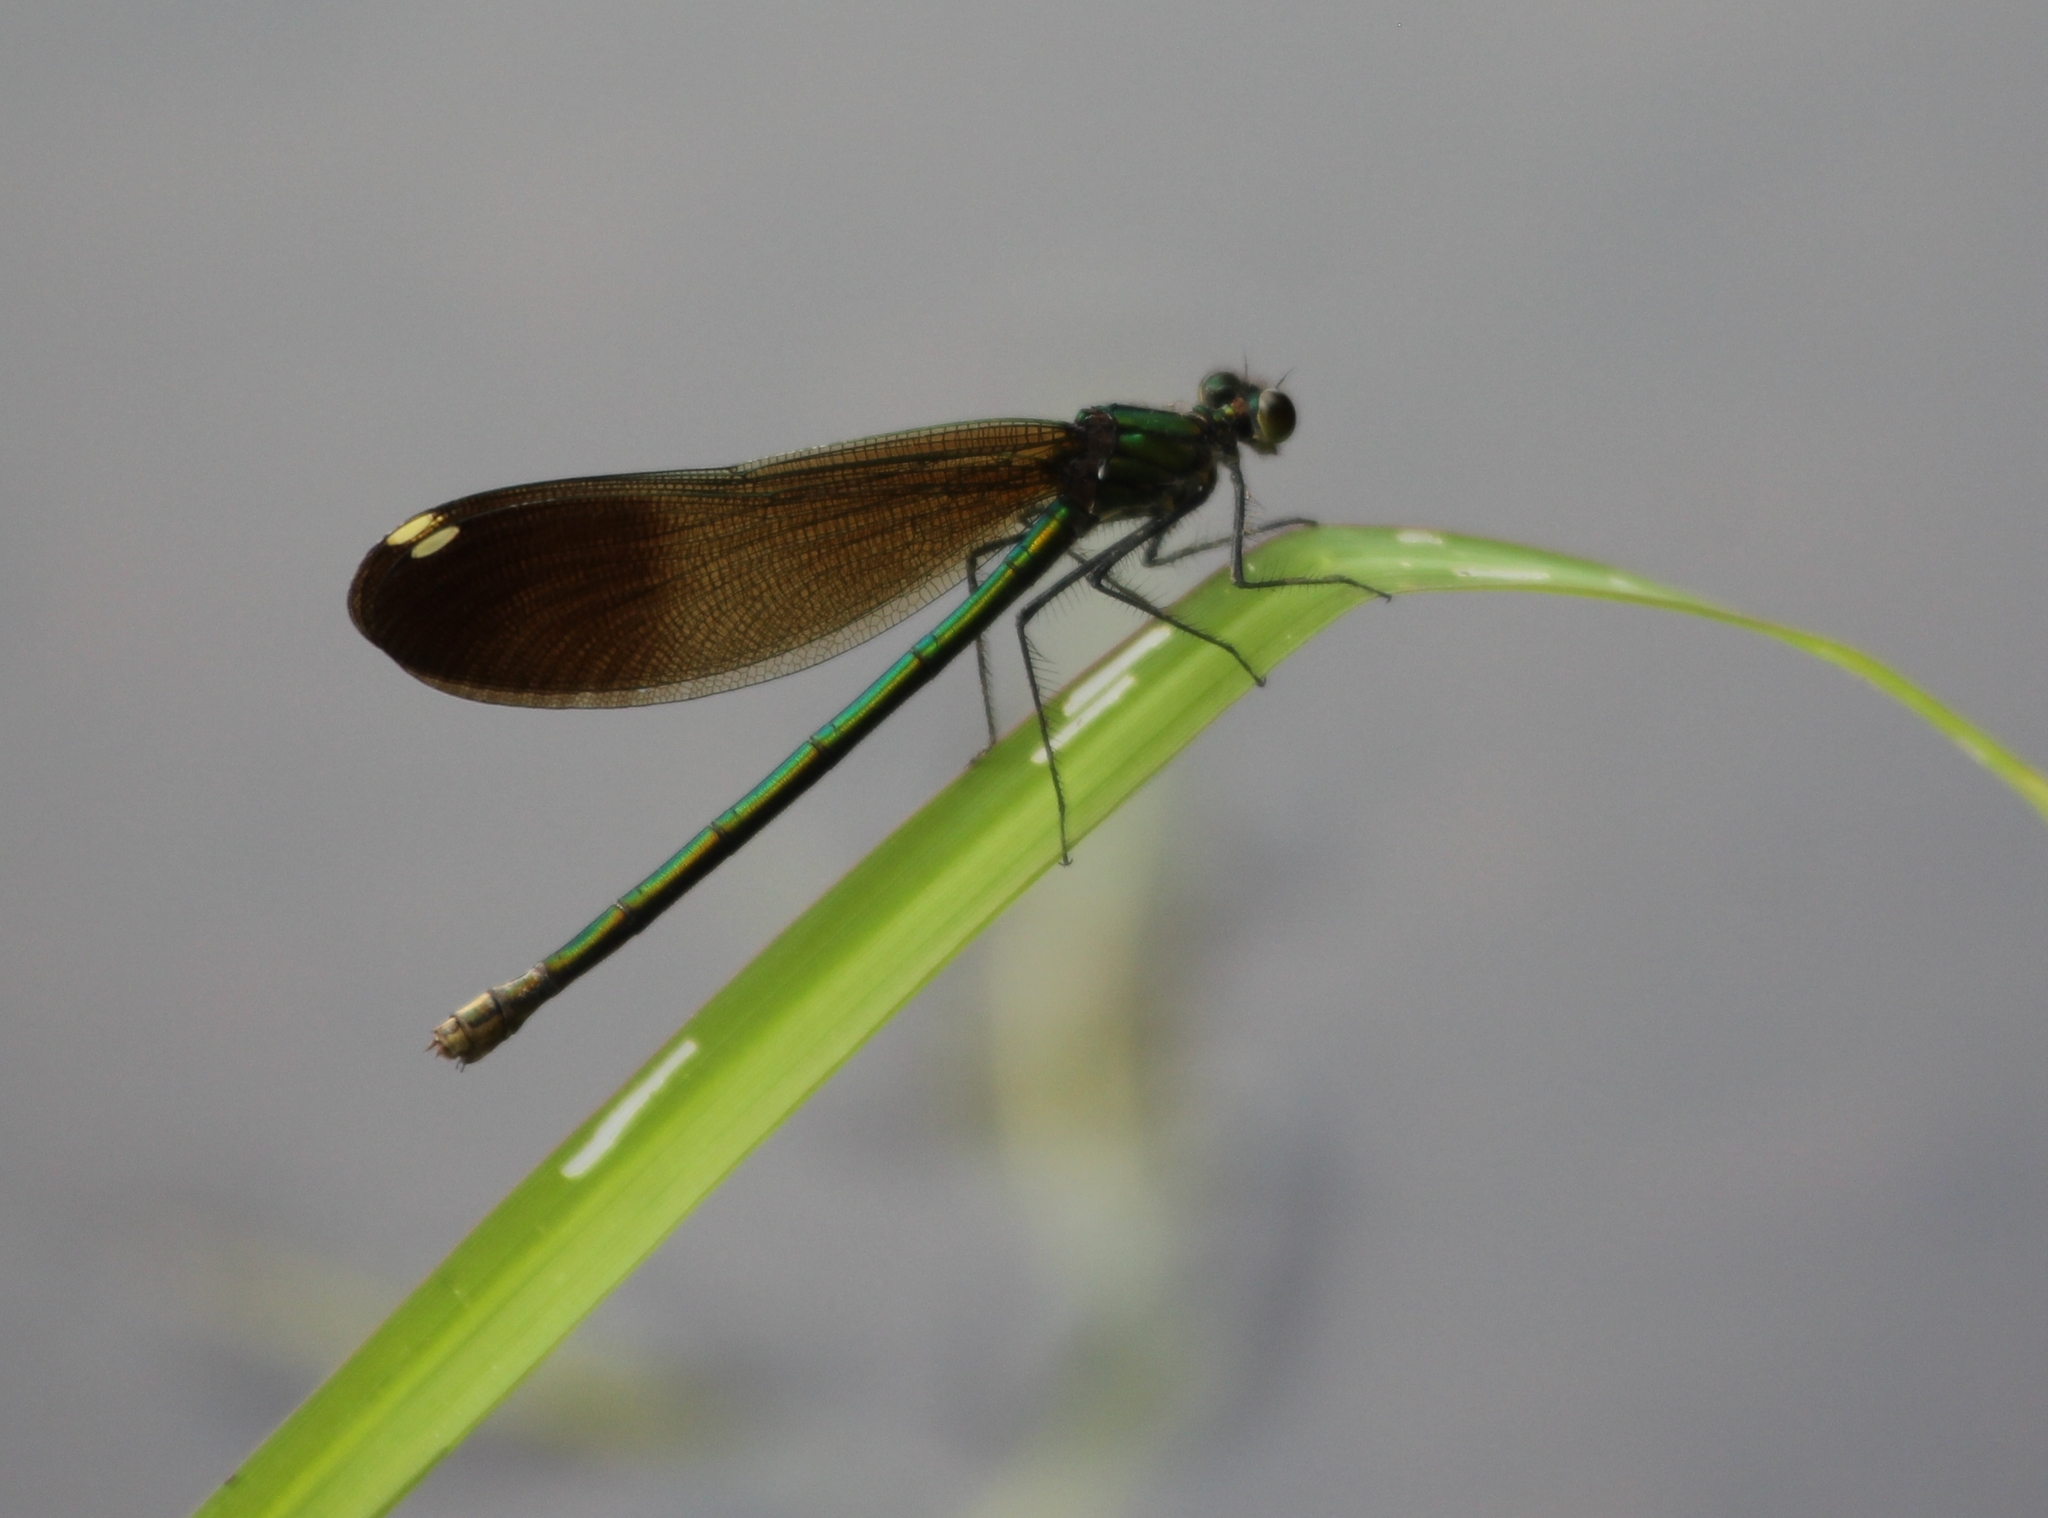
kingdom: Animalia
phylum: Arthropoda
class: Insecta
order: Odonata
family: Calopterygidae
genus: Calopteryx
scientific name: Calopteryx aequabilis
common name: River jewelwing
